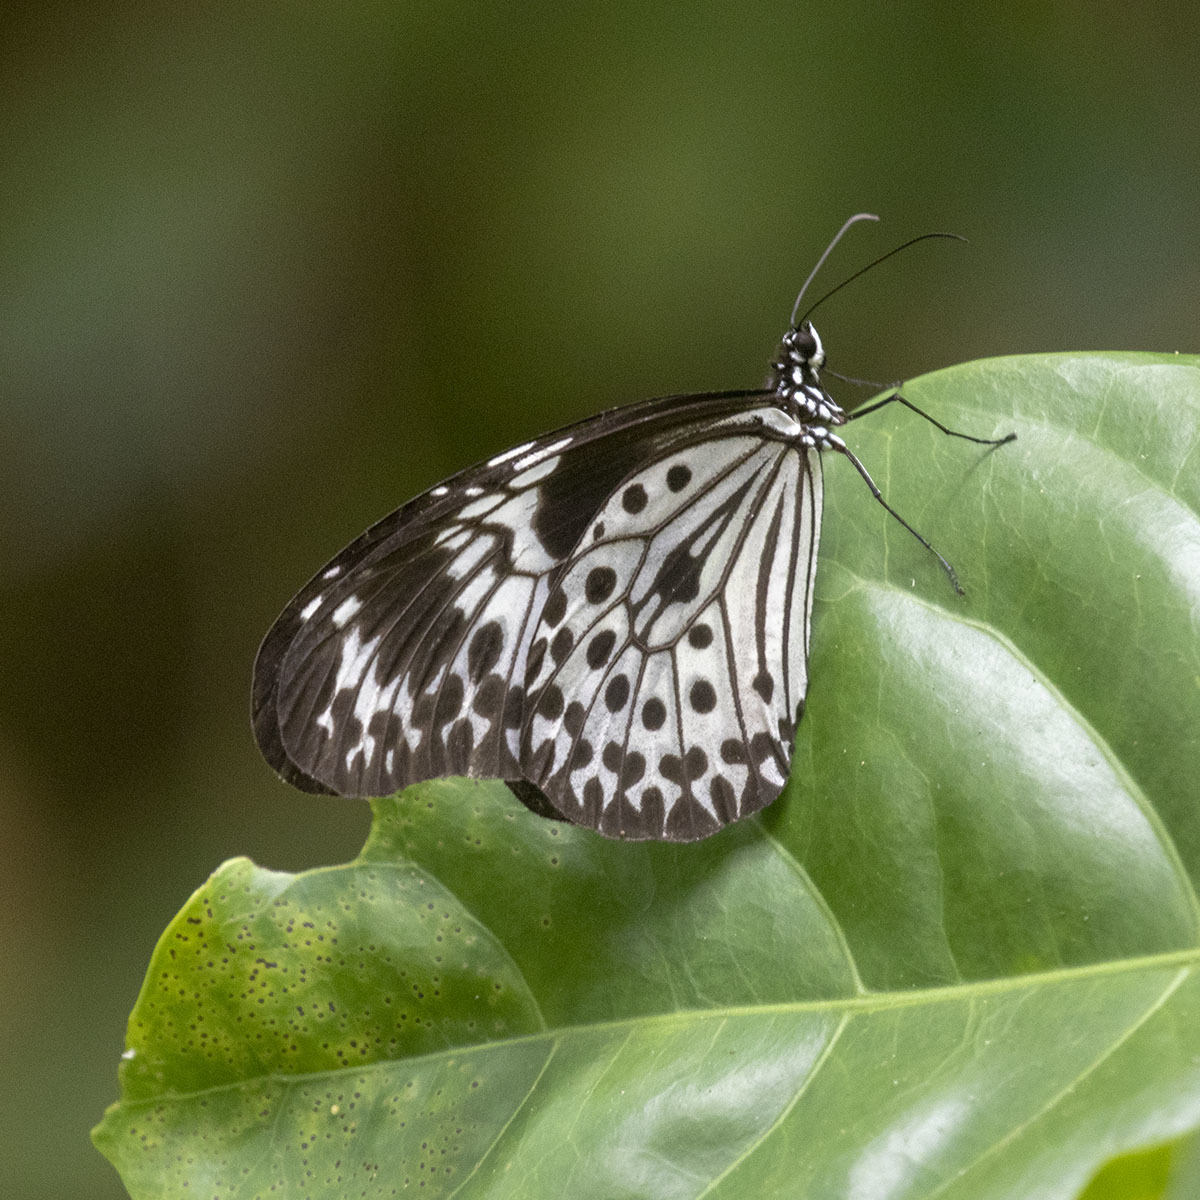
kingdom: Animalia
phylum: Arthropoda
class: Insecta
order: Lepidoptera
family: Nymphalidae
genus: Idea
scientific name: Idea agamarschana
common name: Andaman tree nymph
